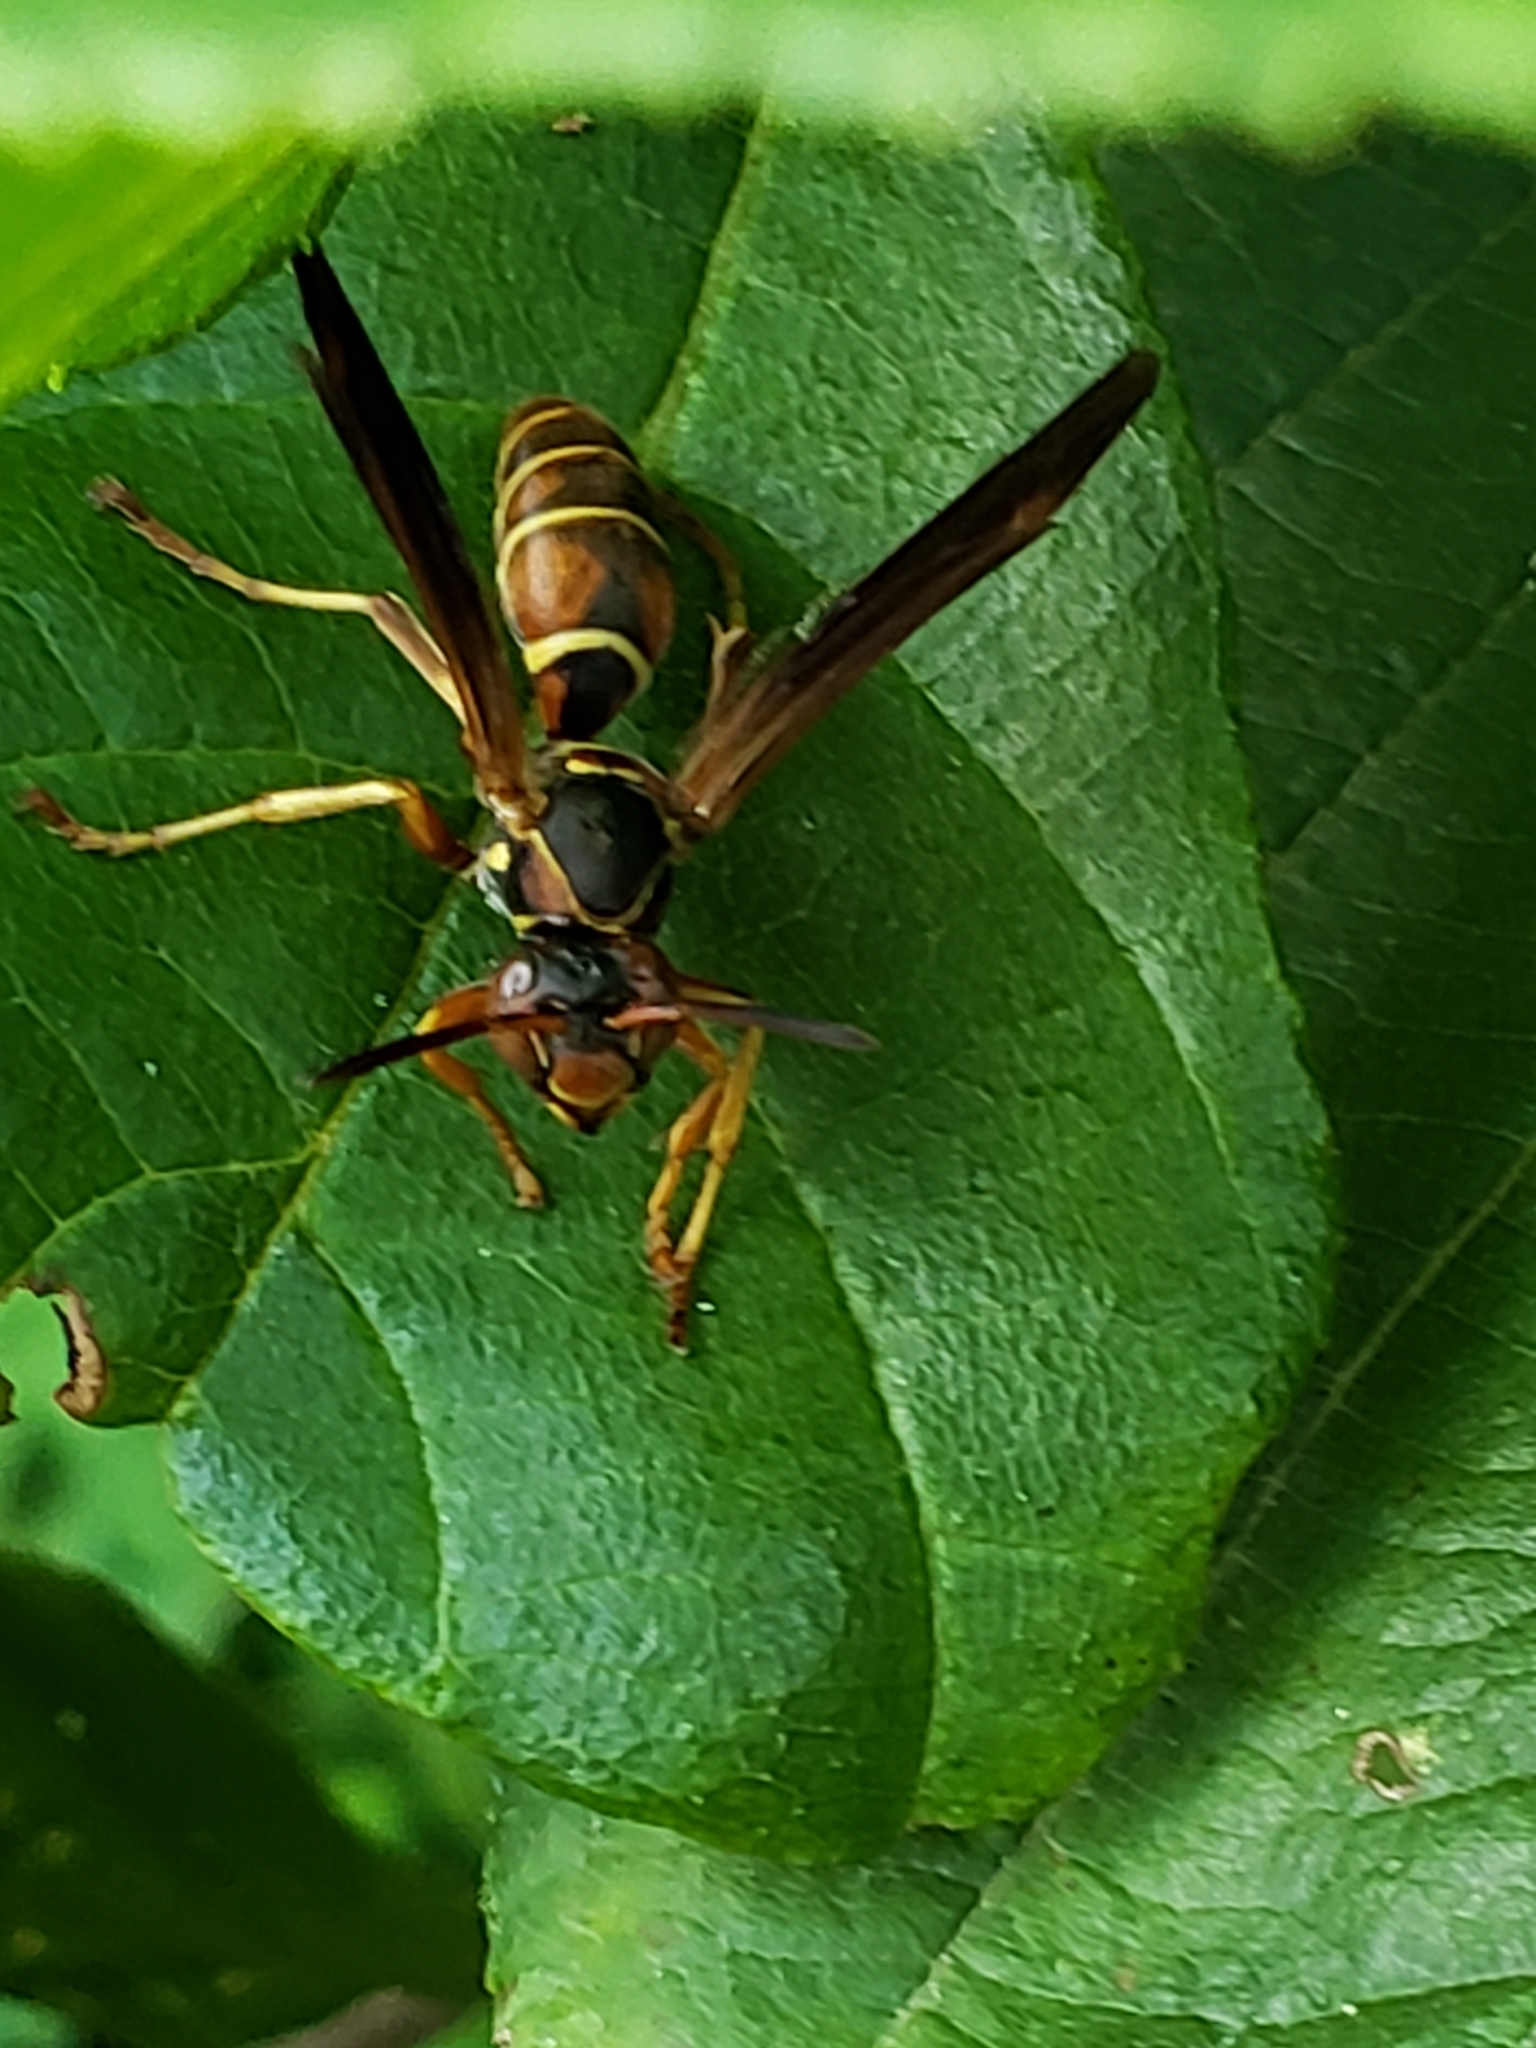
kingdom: Animalia
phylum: Arthropoda
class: Insecta
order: Hymenoptera
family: Eumenidae
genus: Polistes
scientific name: Polistes fuscatus
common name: Dark paper wasp
